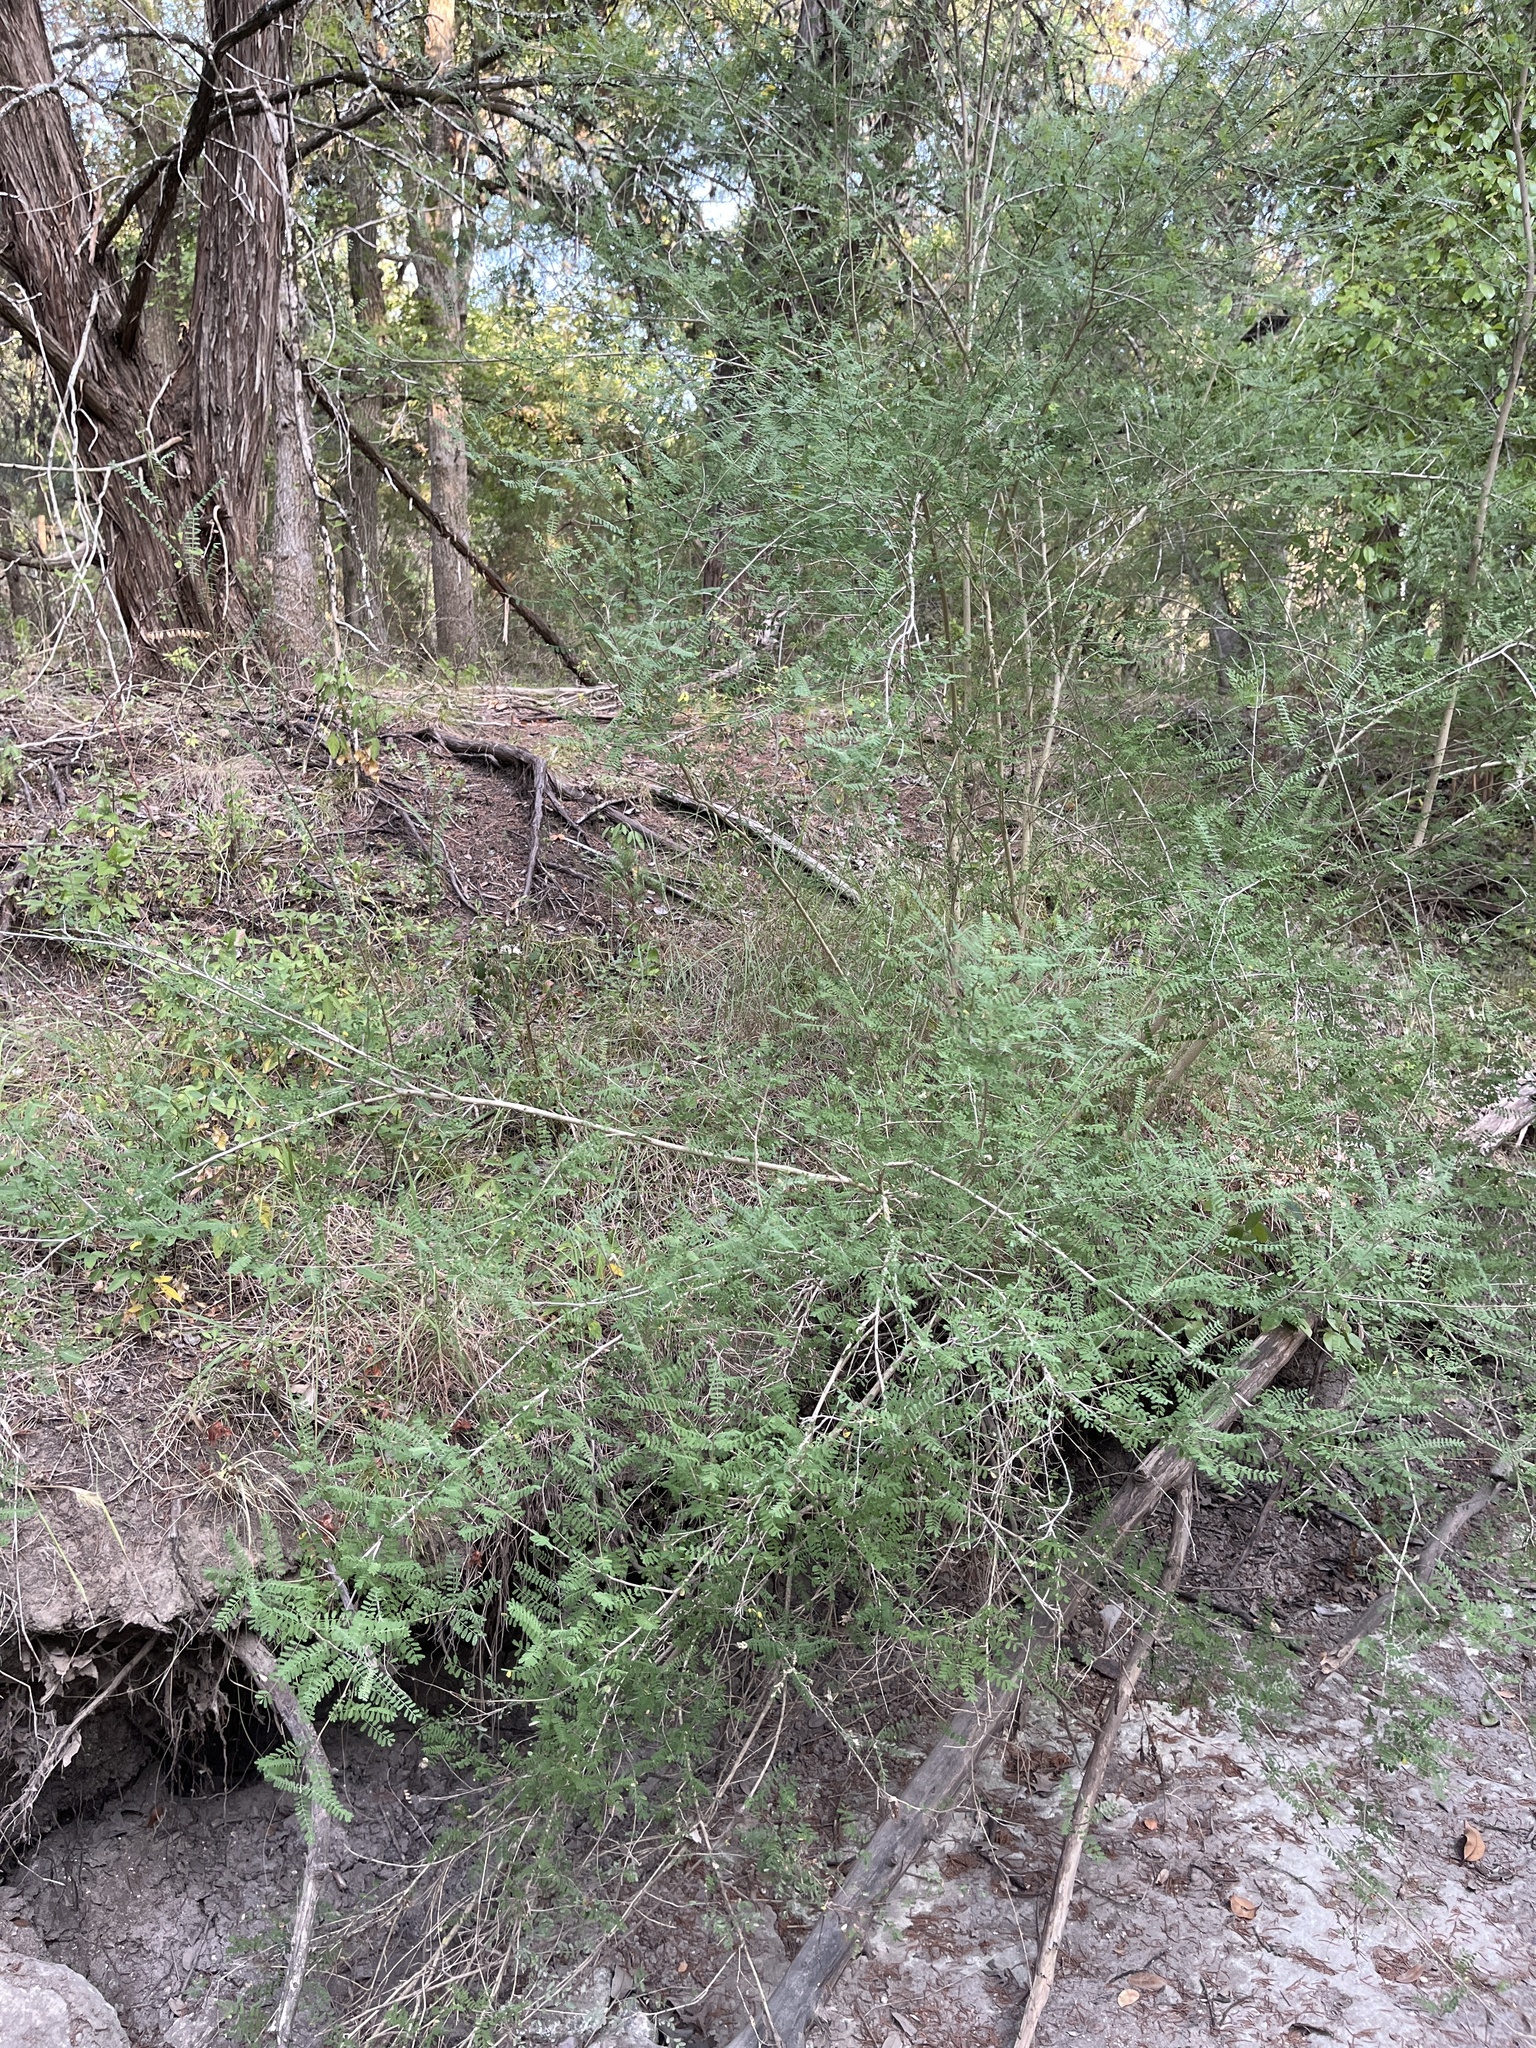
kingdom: Plantae
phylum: Tracheophyta
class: Magnoliopsida
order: Fabales
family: Fabaceae
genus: Eysenhardtia
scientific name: Eysenhardtia texana
